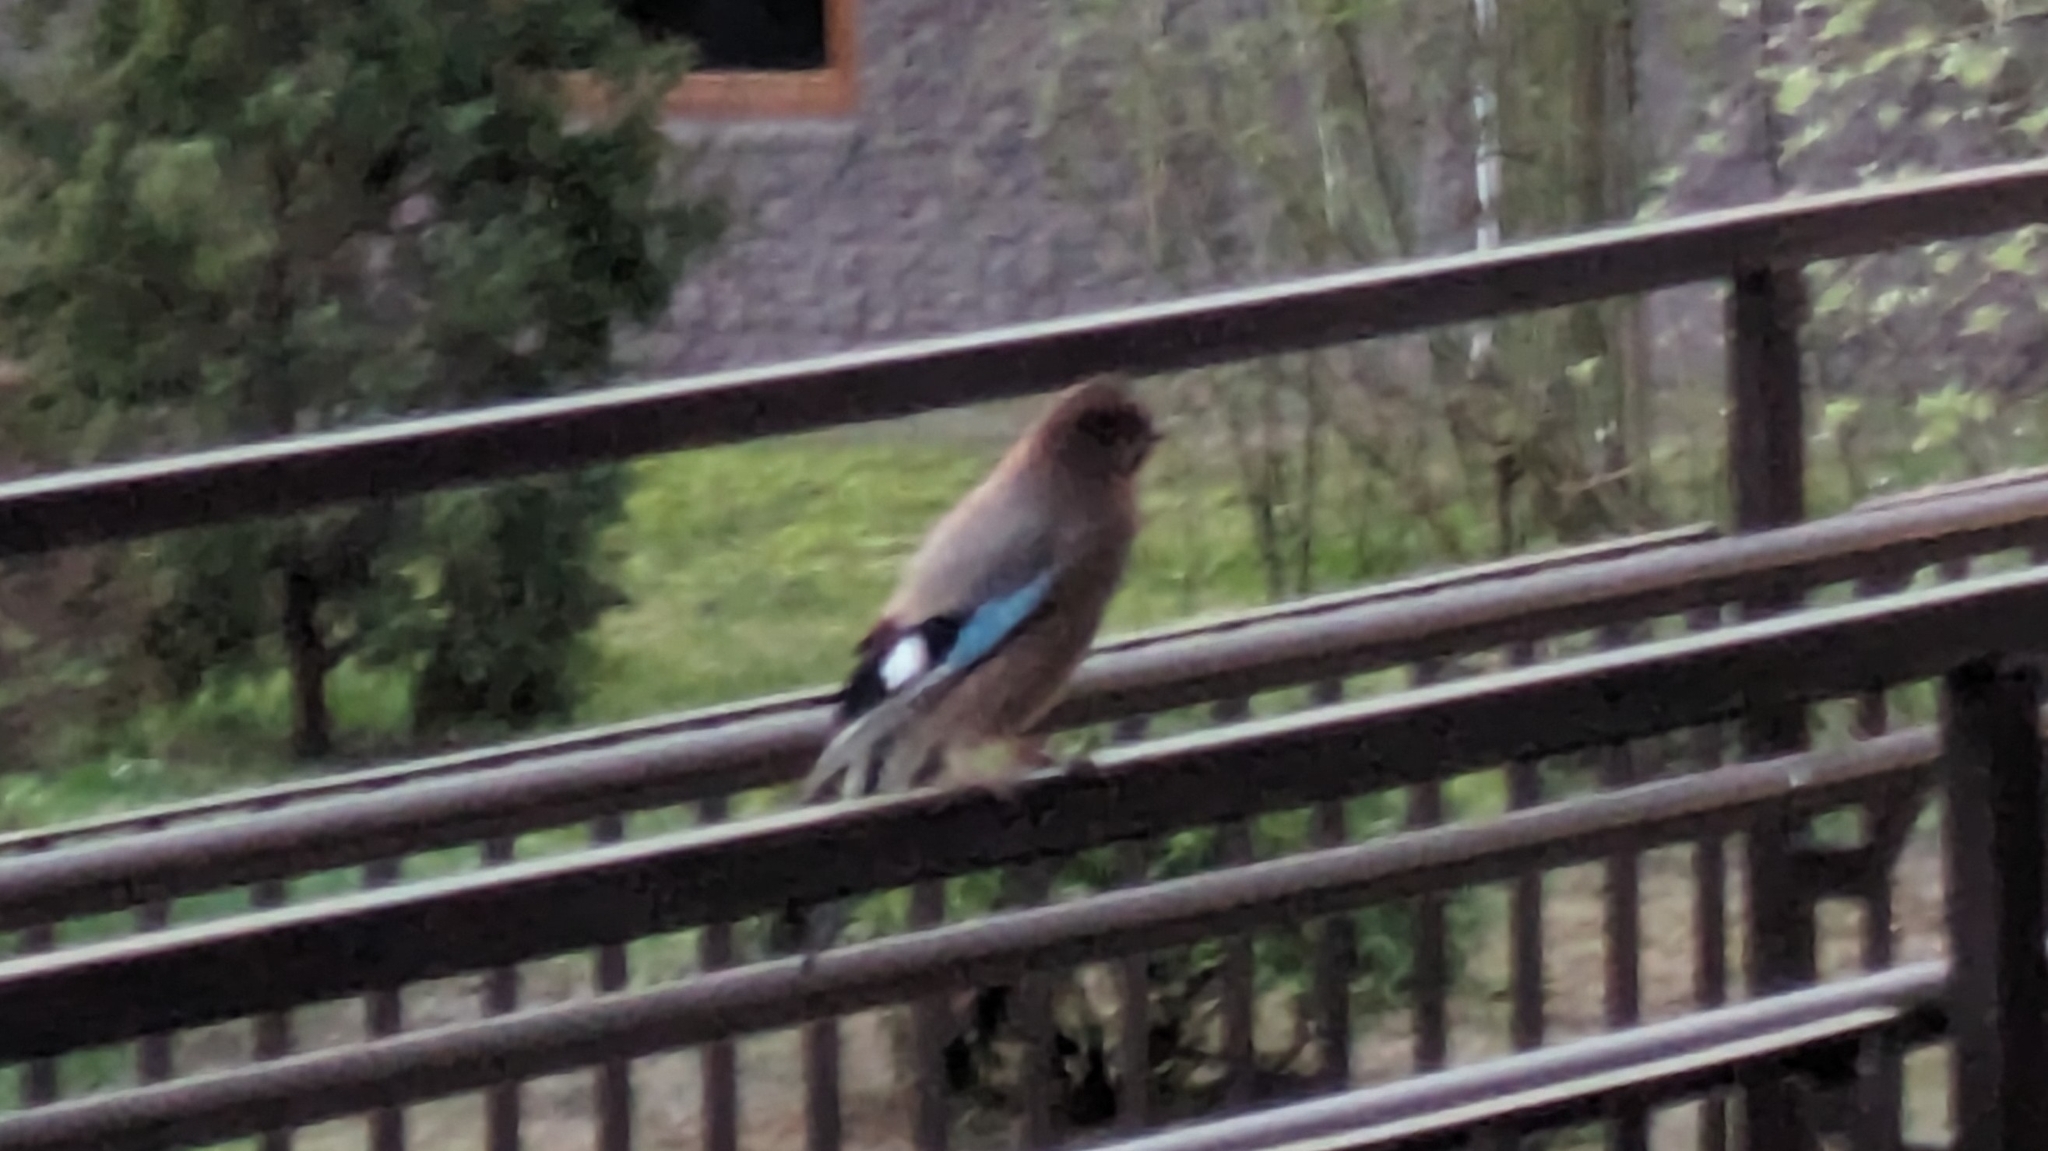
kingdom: Animalia
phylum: Chordata
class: Aves
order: Passeriformes
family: Corvidae
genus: Garrulus
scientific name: Garrulus glandarius
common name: Eurasian jay
